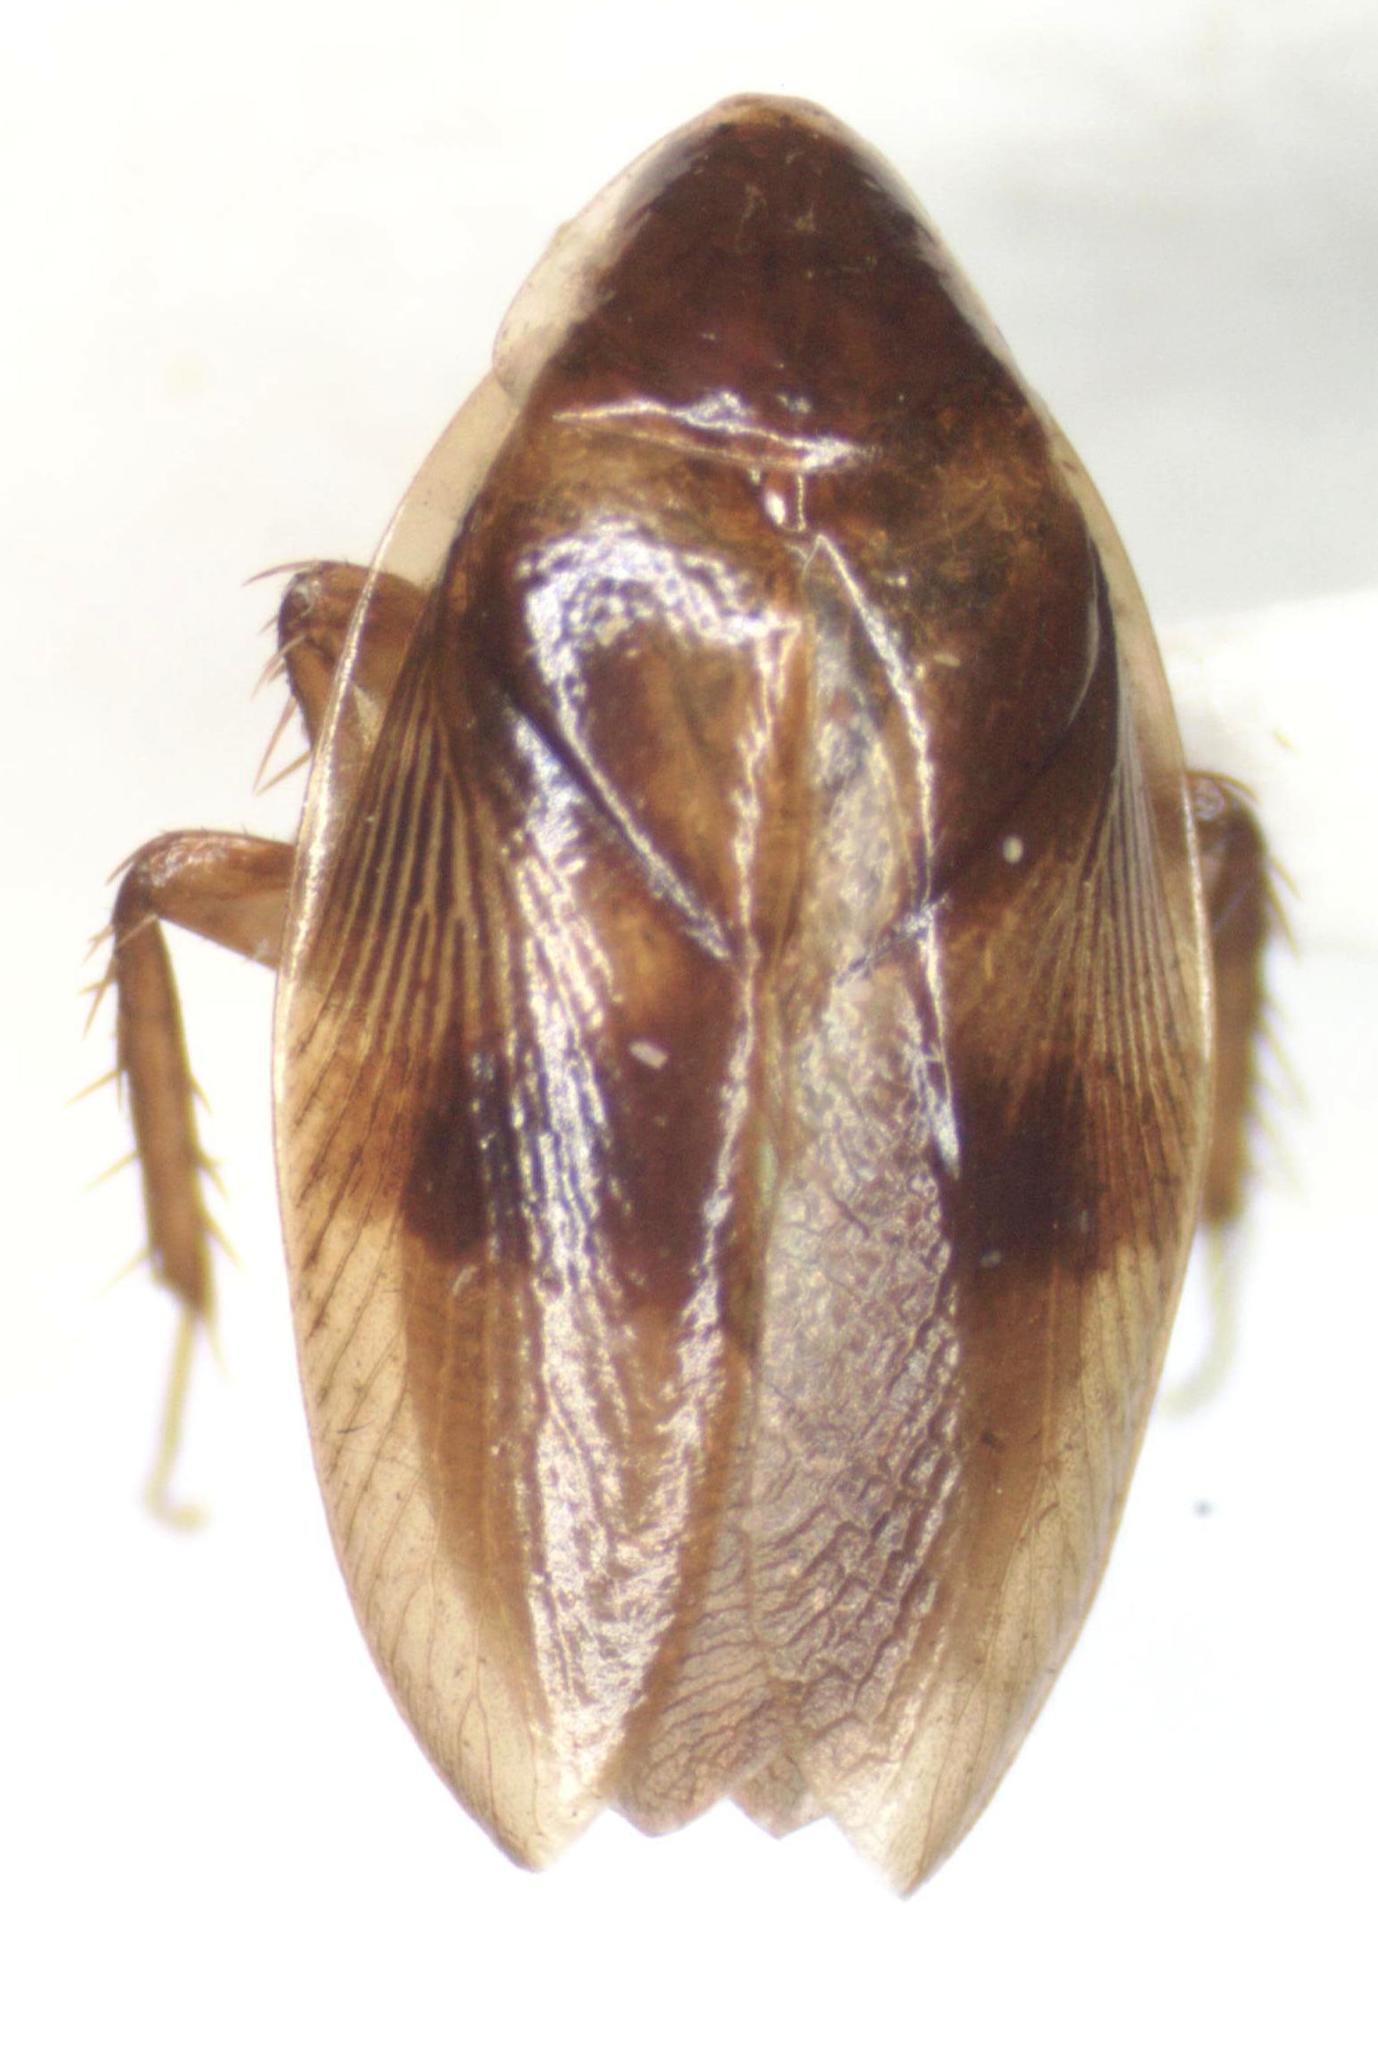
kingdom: Animalia
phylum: Arthropoda
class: Insecta
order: Blattodea
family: Ectobiidae
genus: Riatia
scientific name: Riatia flabellata
